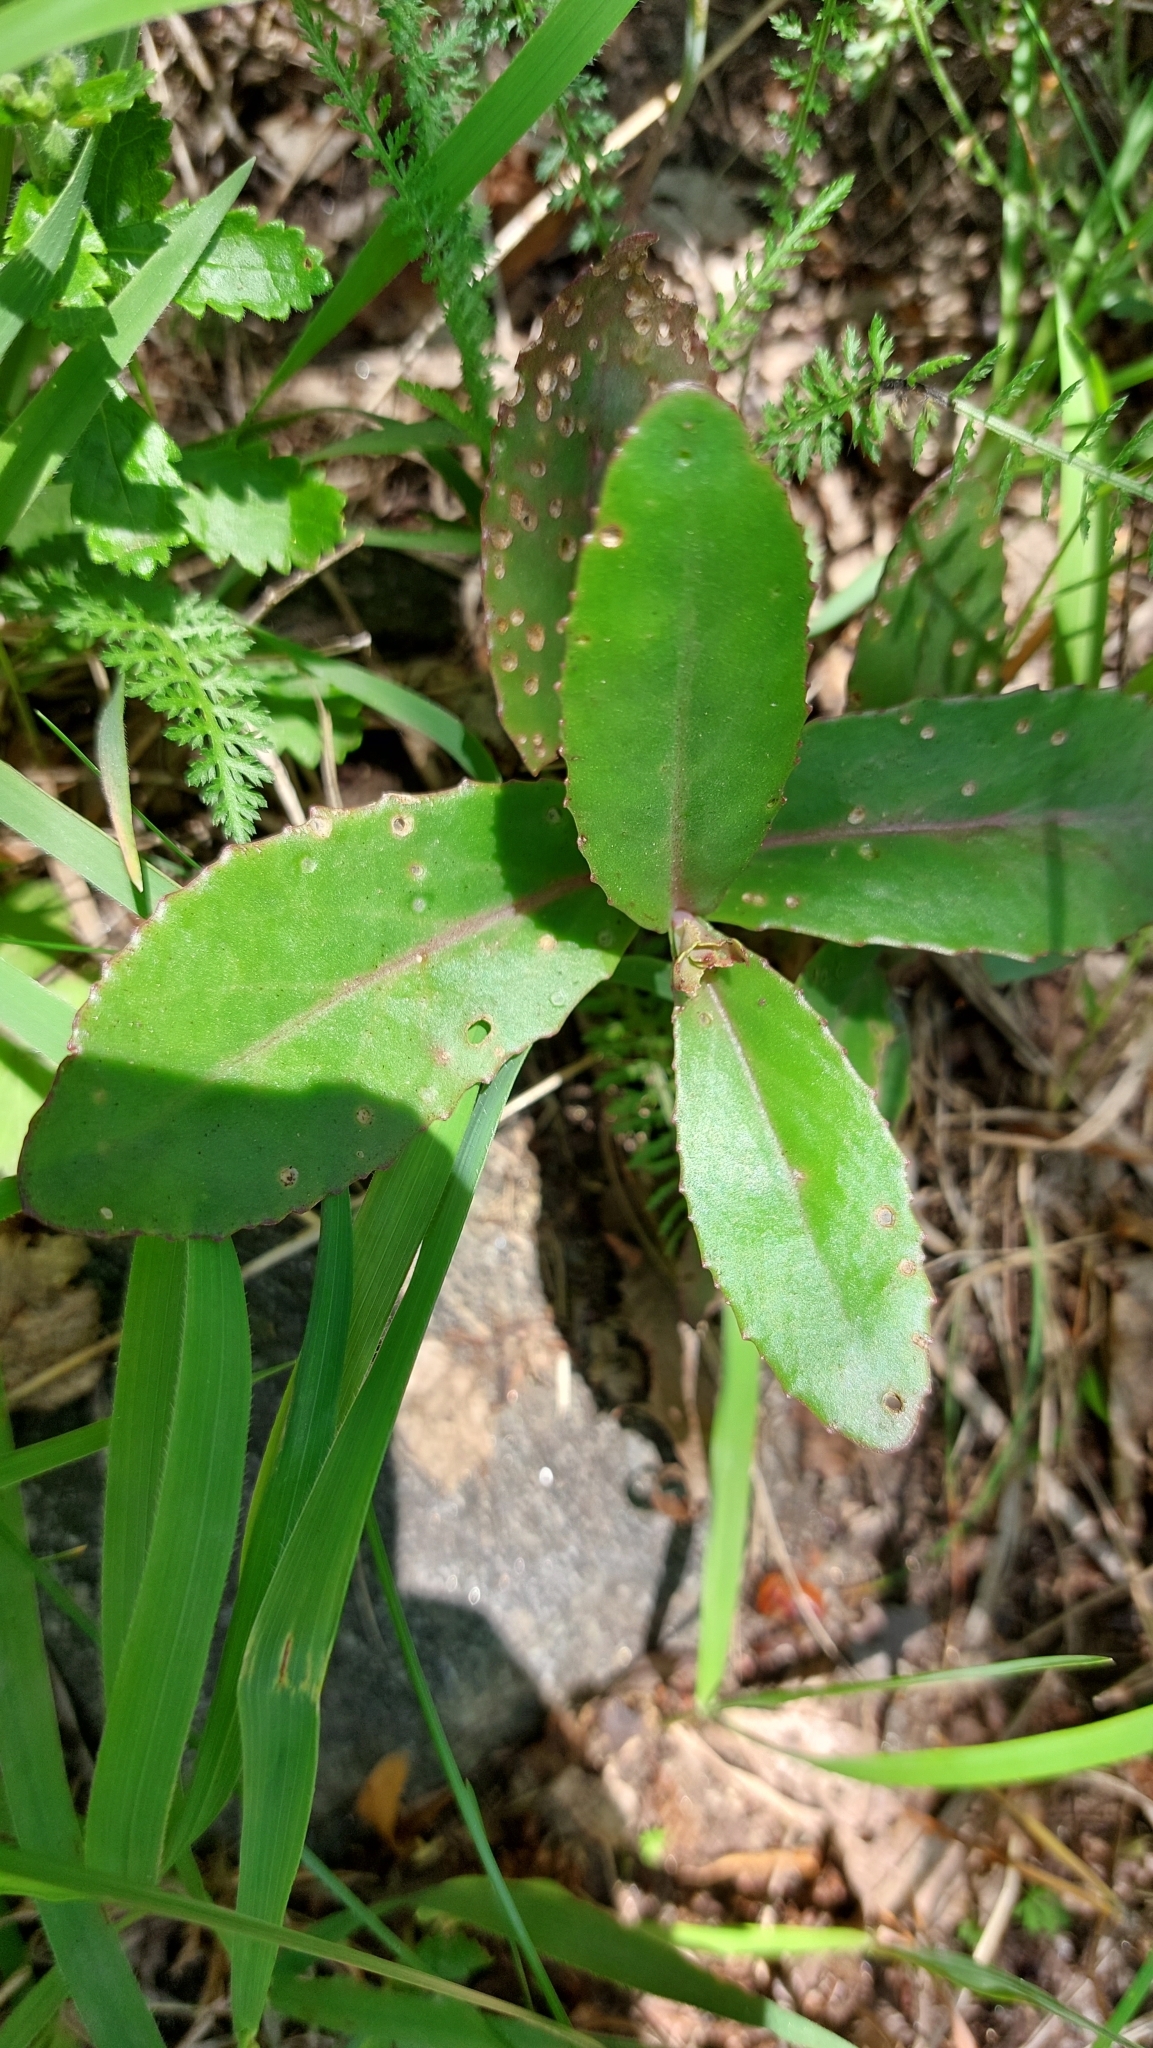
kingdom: Plantae
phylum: Tracheophyta
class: Magnoliopsida
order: Saxifragales
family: Crassulaceae
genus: Hylotelephium
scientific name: Hylotelephium maximum
